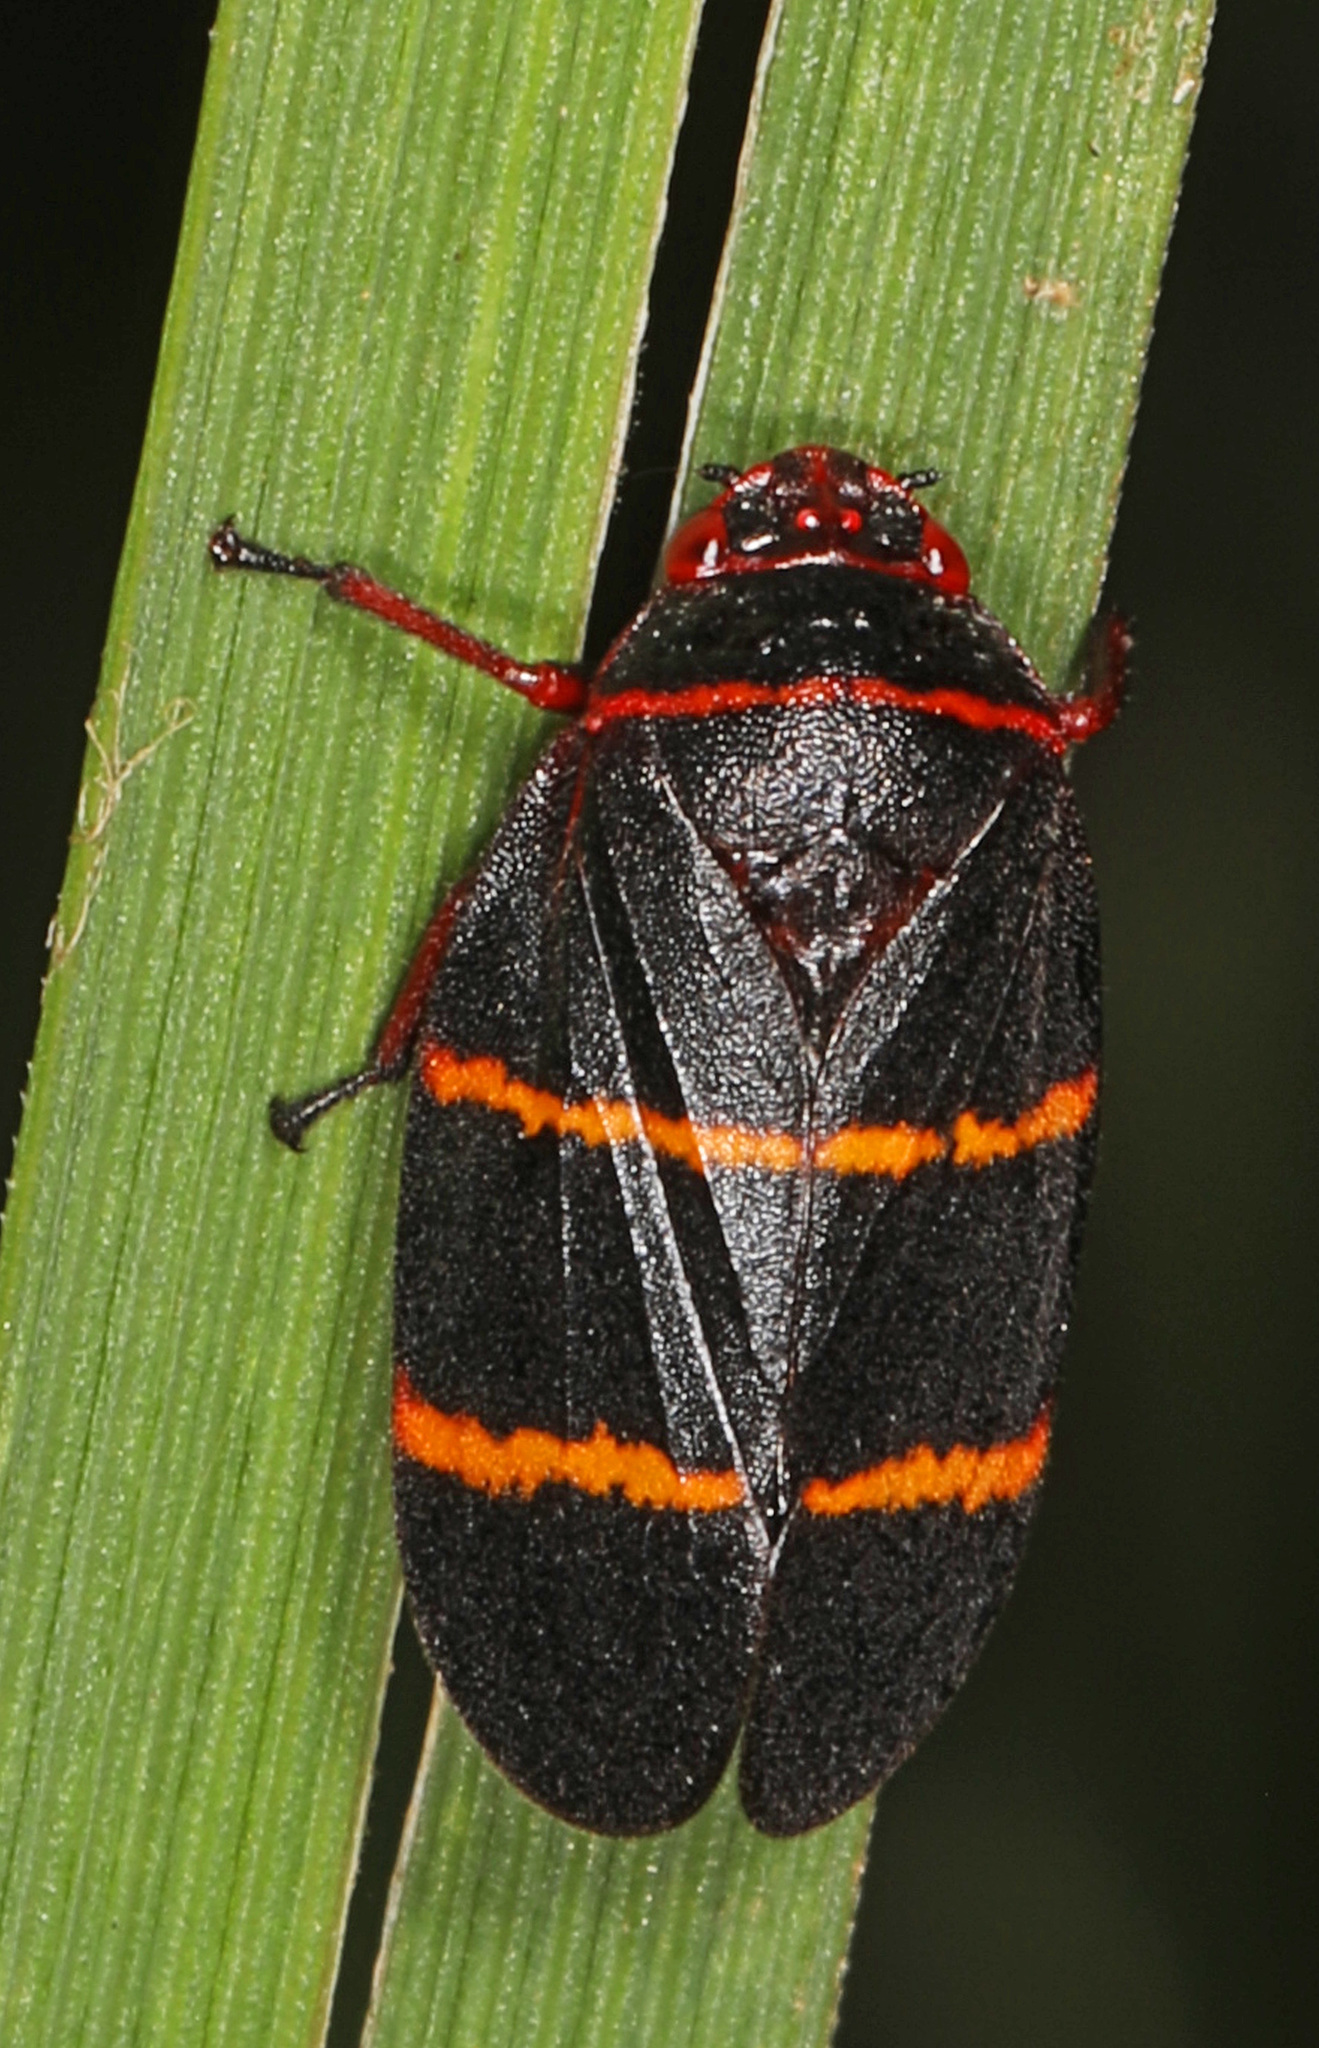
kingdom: Animalia
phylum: Arthropoda
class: Insecta
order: Hemiptera
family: Cercopidae
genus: Prosapia
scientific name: Prosapia bicincta
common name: Twolined spittlebug
